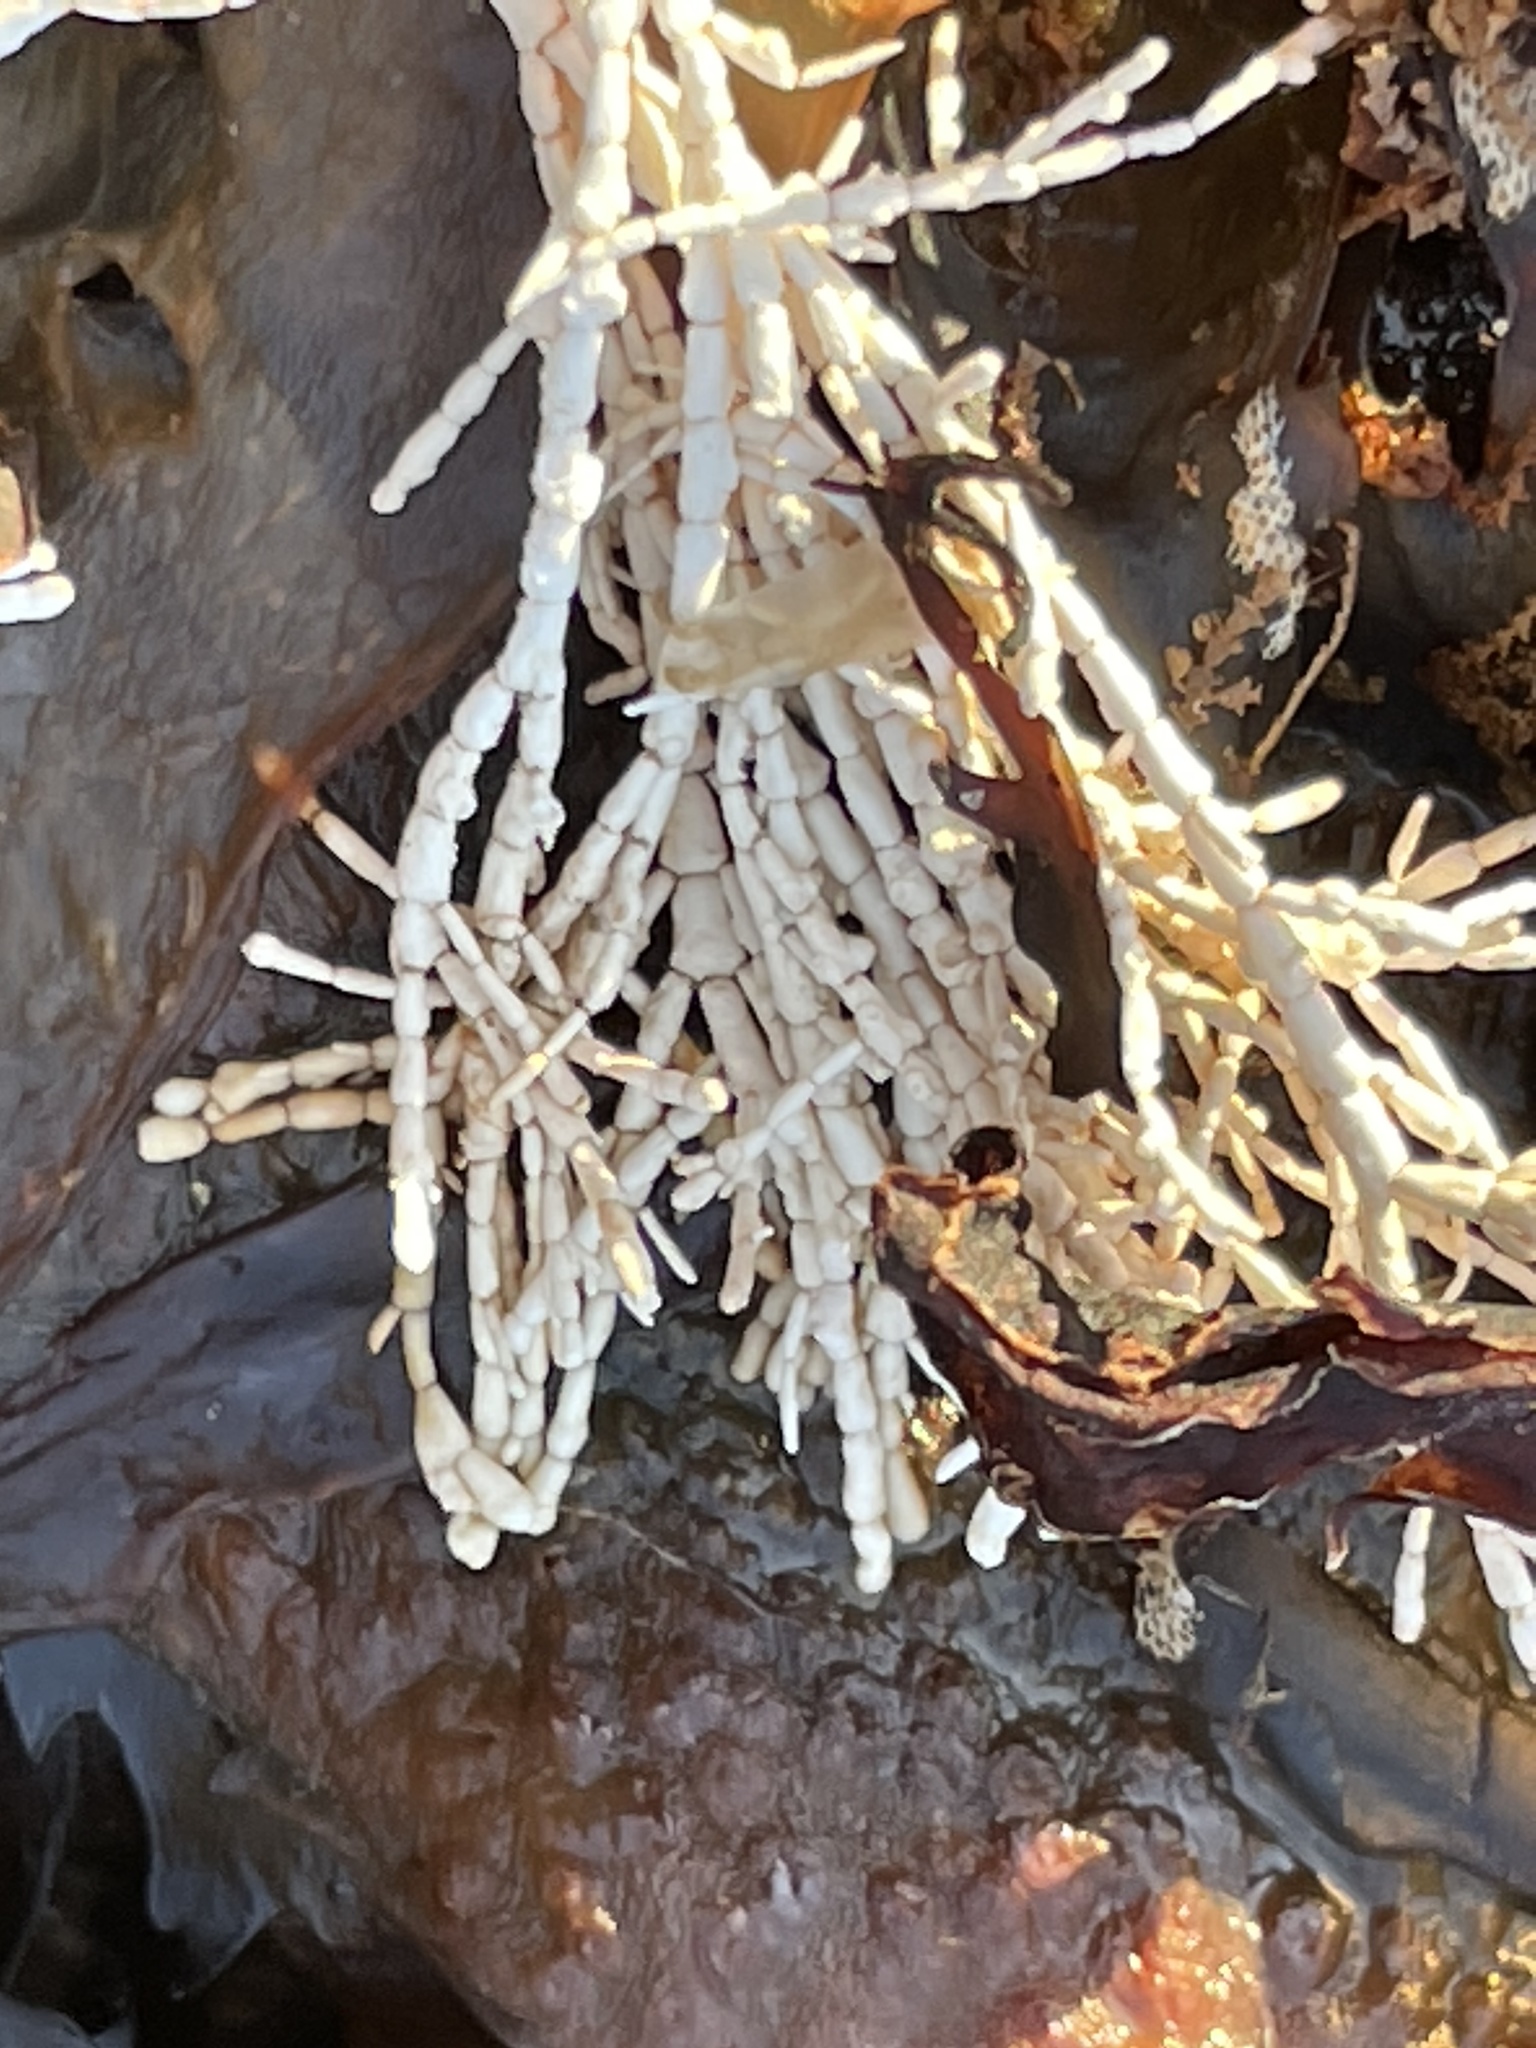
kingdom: Plantae
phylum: Rhodophyta
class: Florideophyceae
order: Corallinales
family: Corallinaceae
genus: Corallina
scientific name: Corallina officinalis
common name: Coral weed
